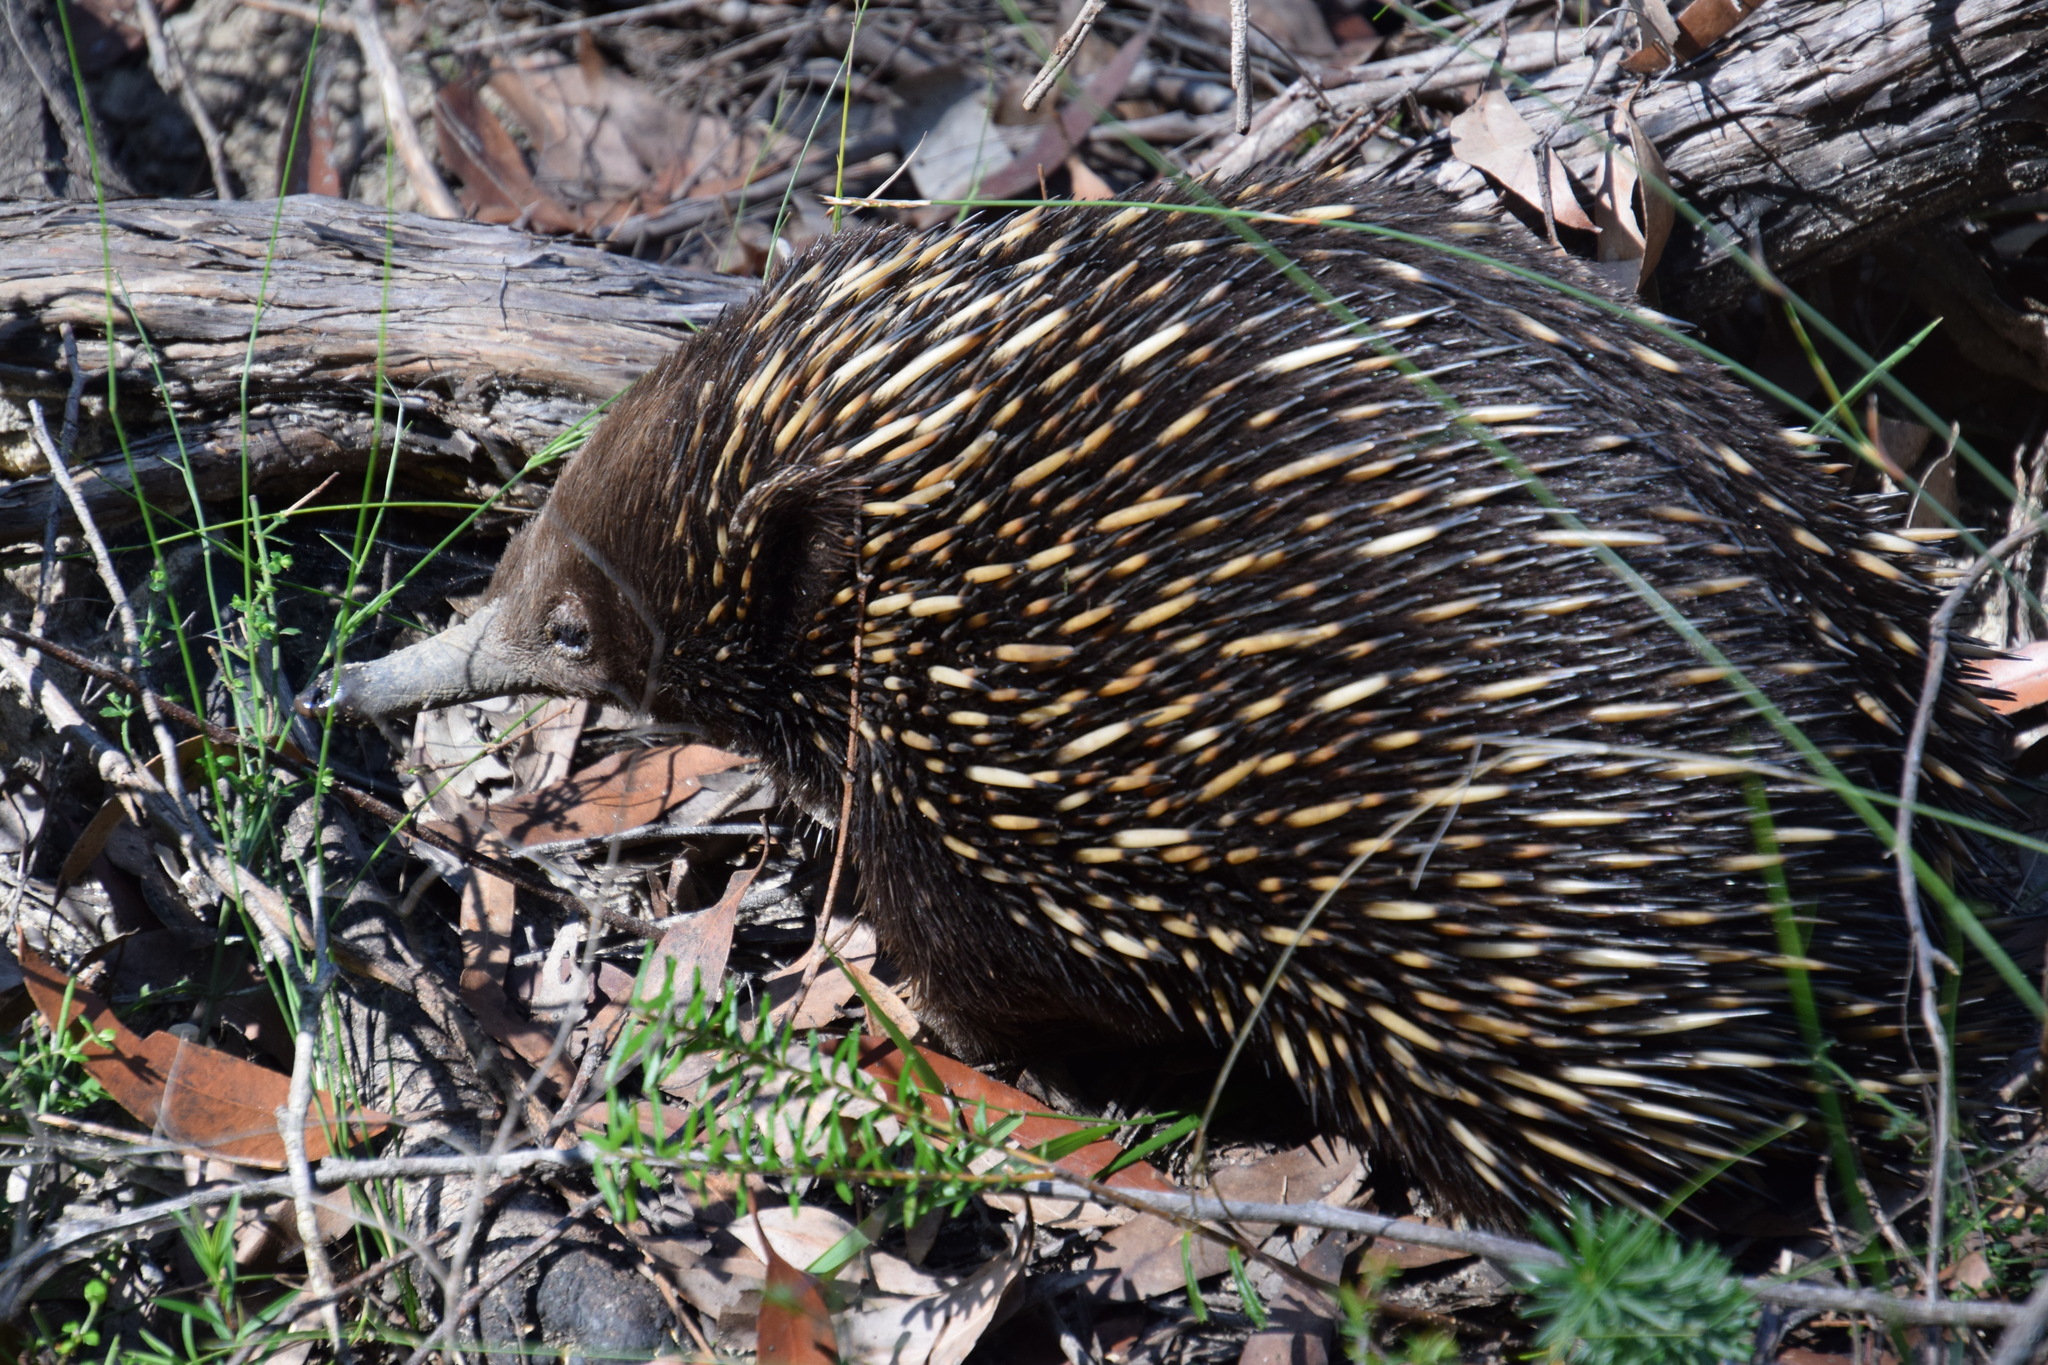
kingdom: Animalia
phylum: Chordata
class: Mammalia
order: Monotremata
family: Tachyglossidae
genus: Tachyglossus
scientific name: Tachyglossus aculeatus
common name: Short-beaked echidna
